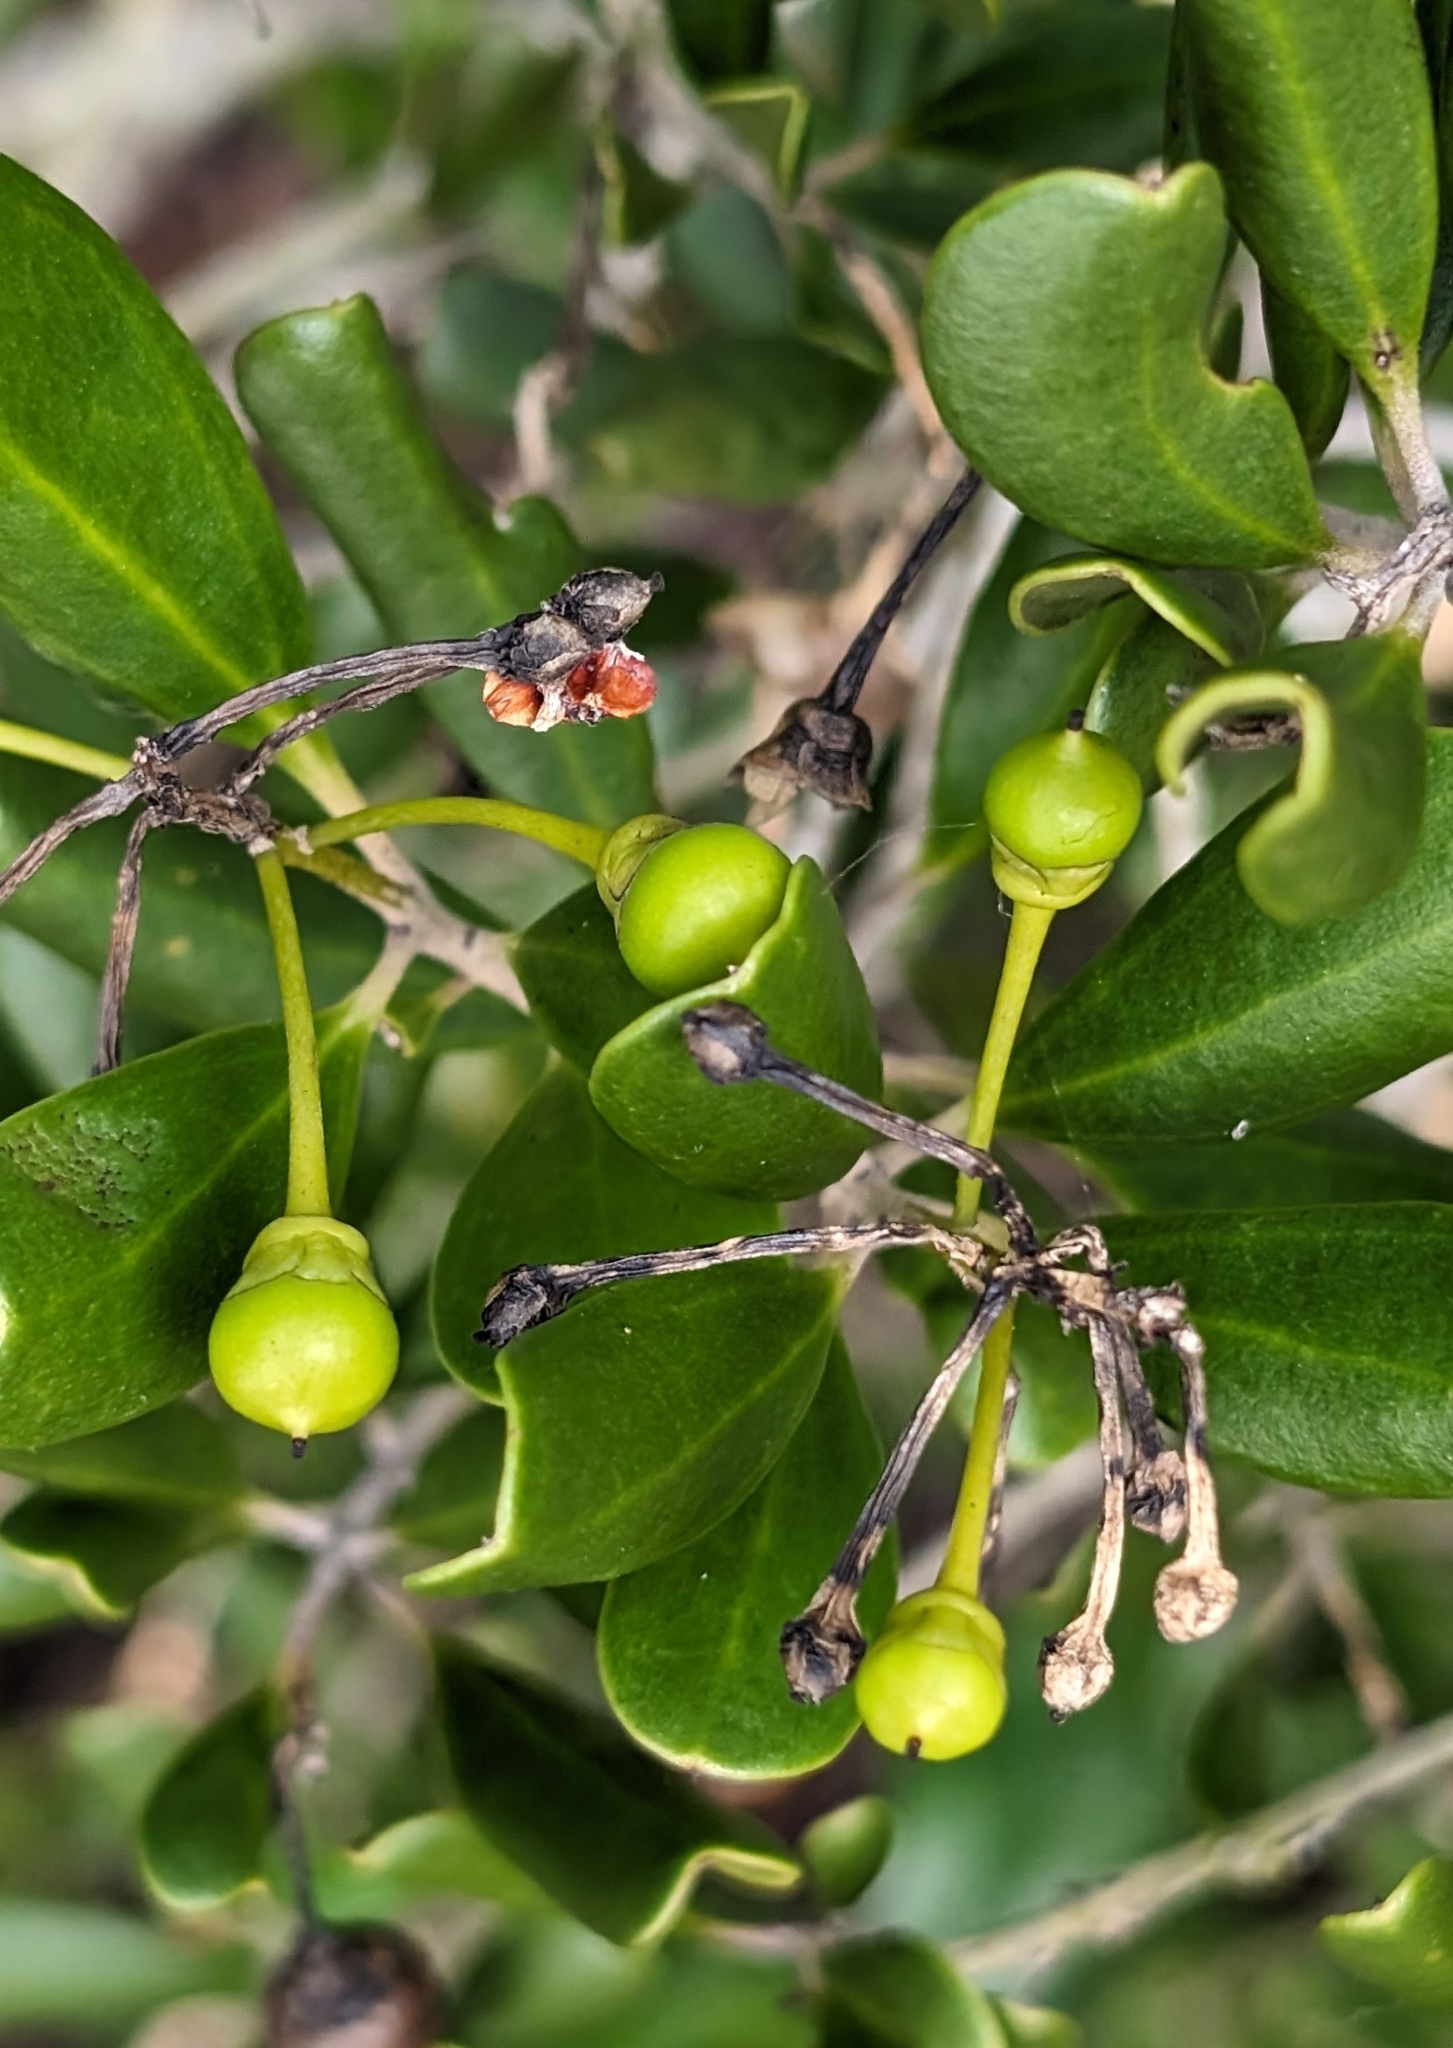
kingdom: Plantae
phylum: Tracheophyta
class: Magnoliopsida
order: Ericales
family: Primulaceae
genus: Jacquinia
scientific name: Jacquinia keyensis
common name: Joebush
